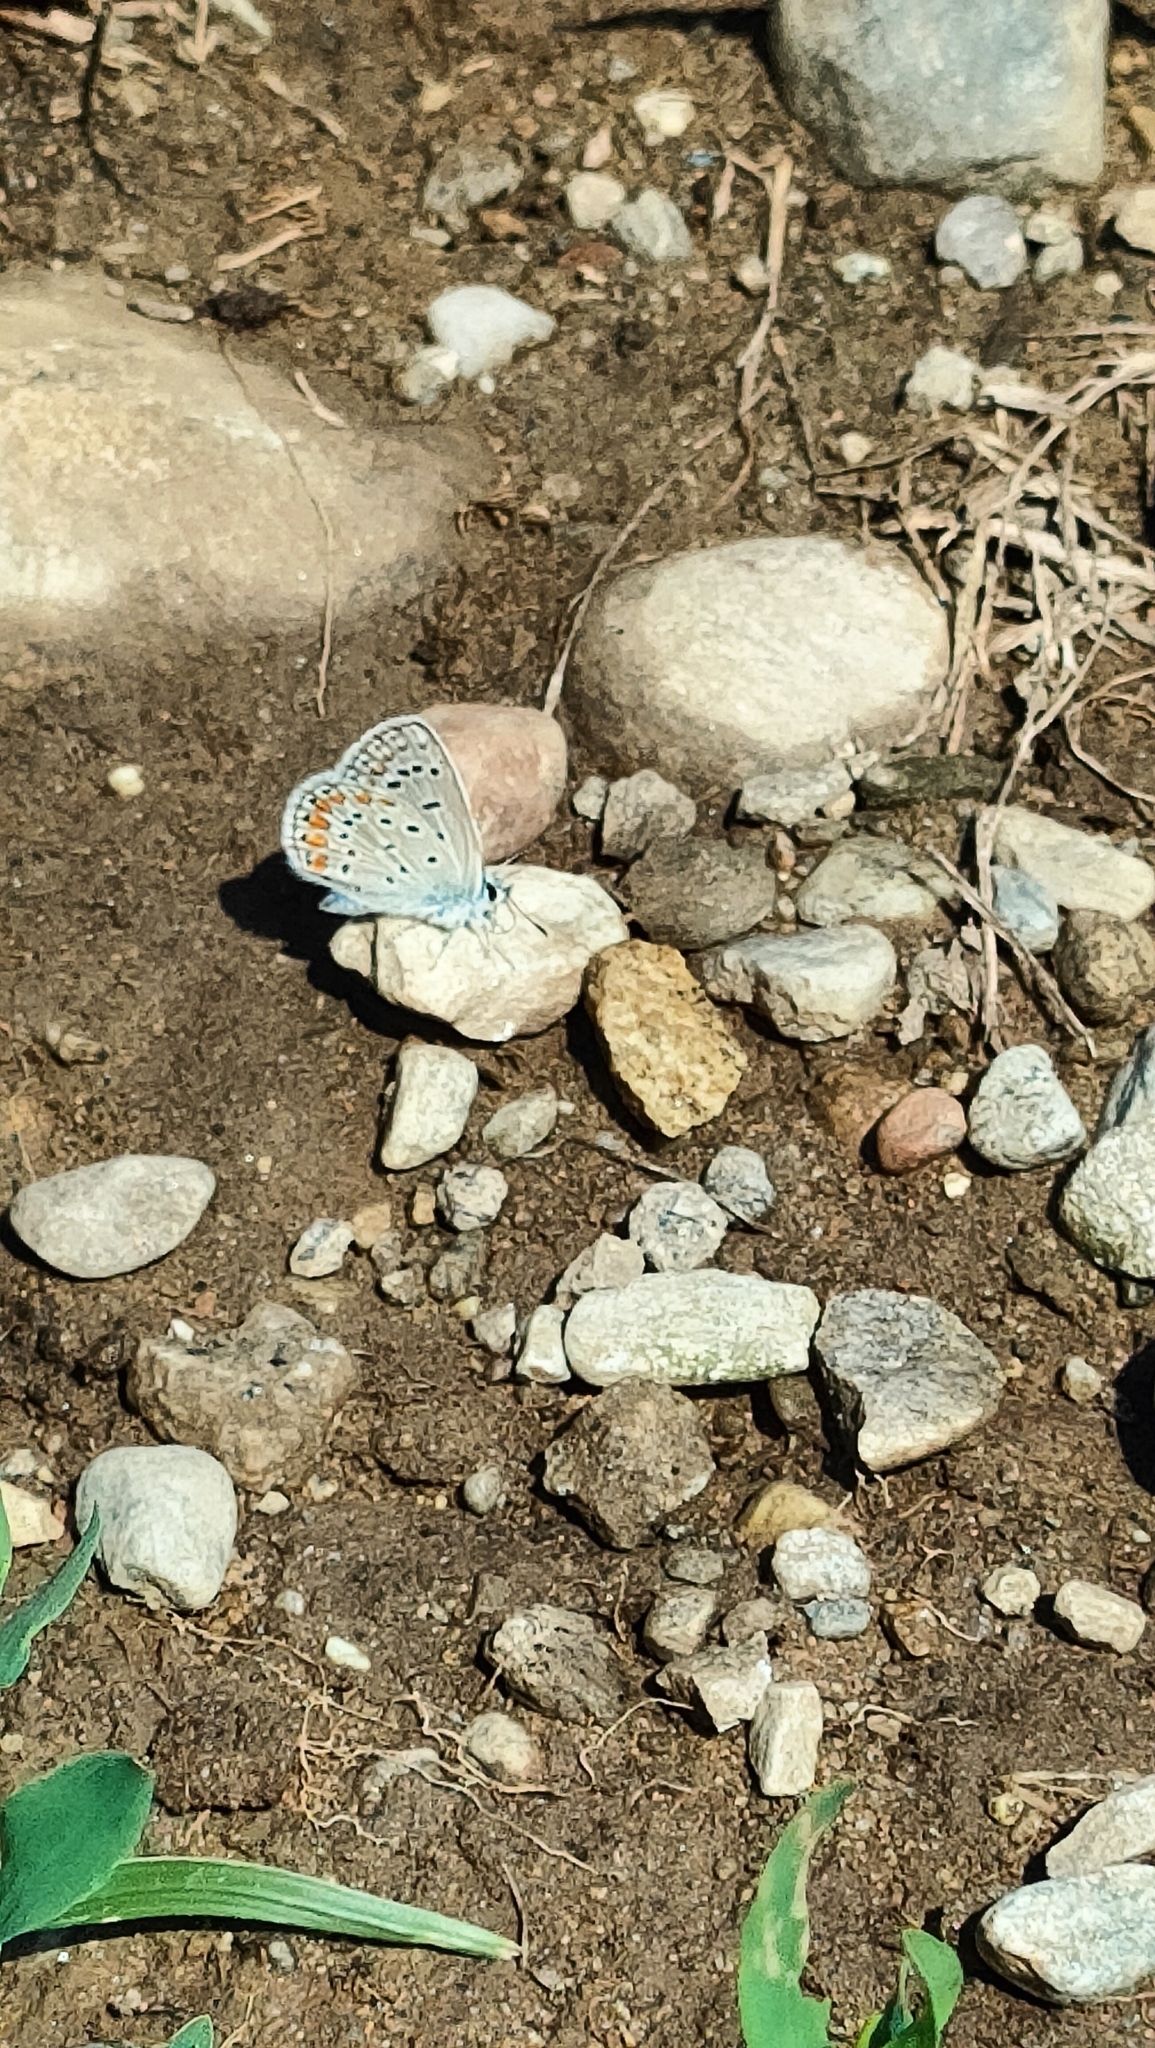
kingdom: Animalia
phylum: Arthropoda
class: Insecta
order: Lepidoptera
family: Lycaenidae
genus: Polyommatus
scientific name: Polyommatus icarus
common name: Common blue
